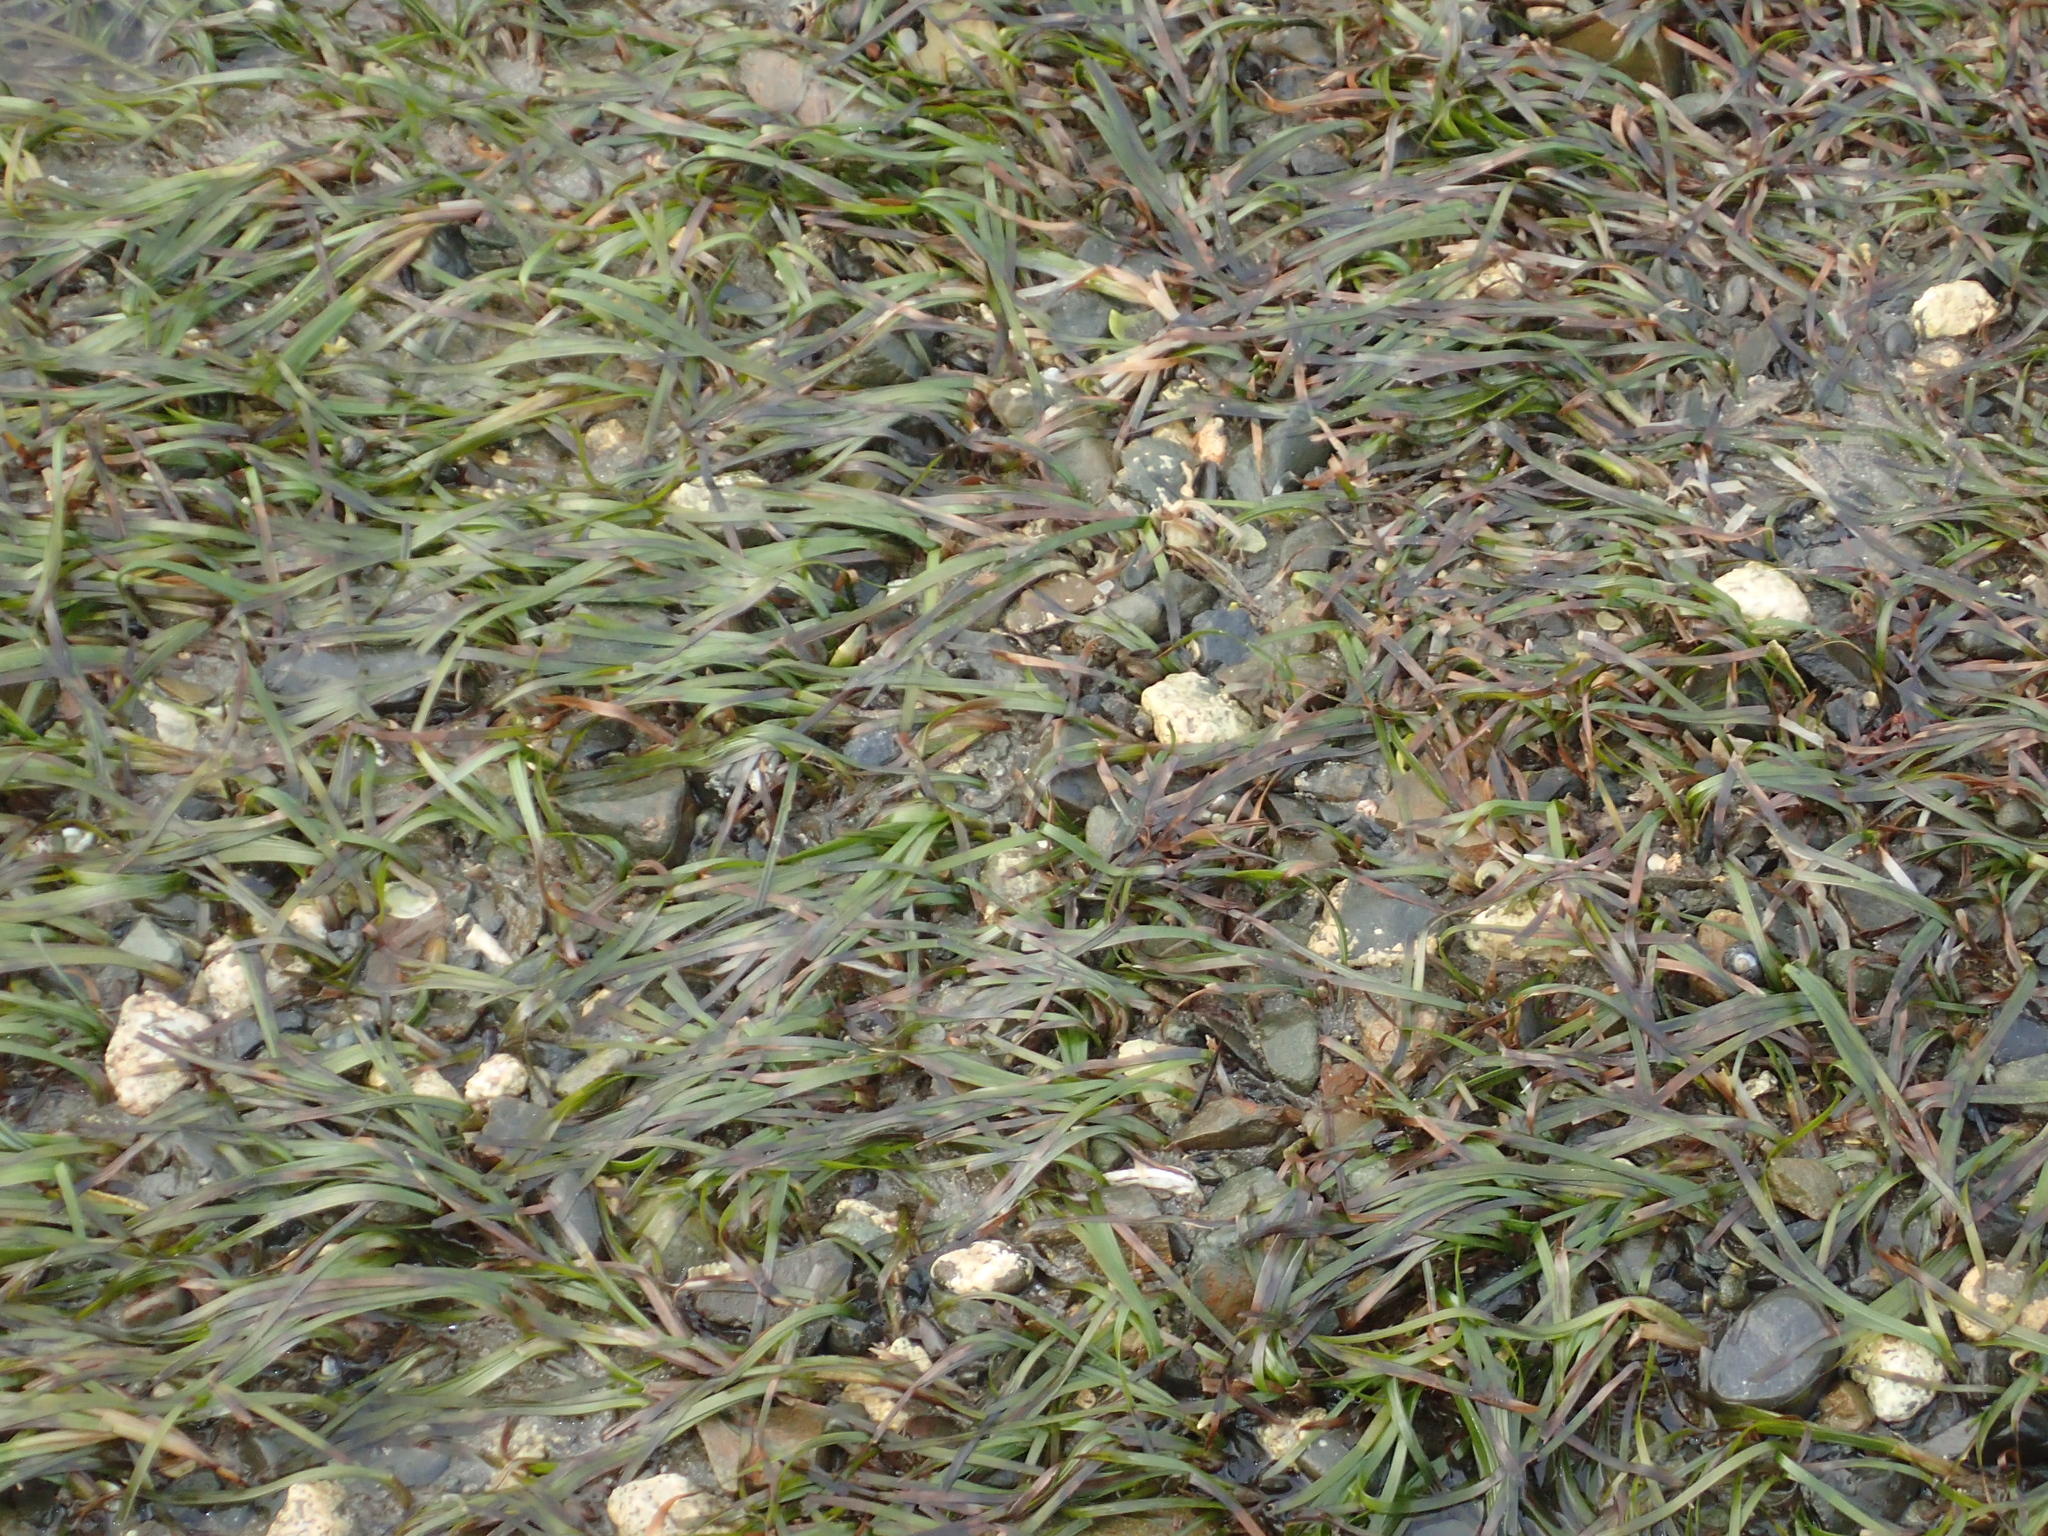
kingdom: Plantae
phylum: Tracheophyta
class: Liliopsida
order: Alismatales
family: Zosteraceae
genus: Zostera
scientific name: Zostera muelleri
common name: Species code: zc
